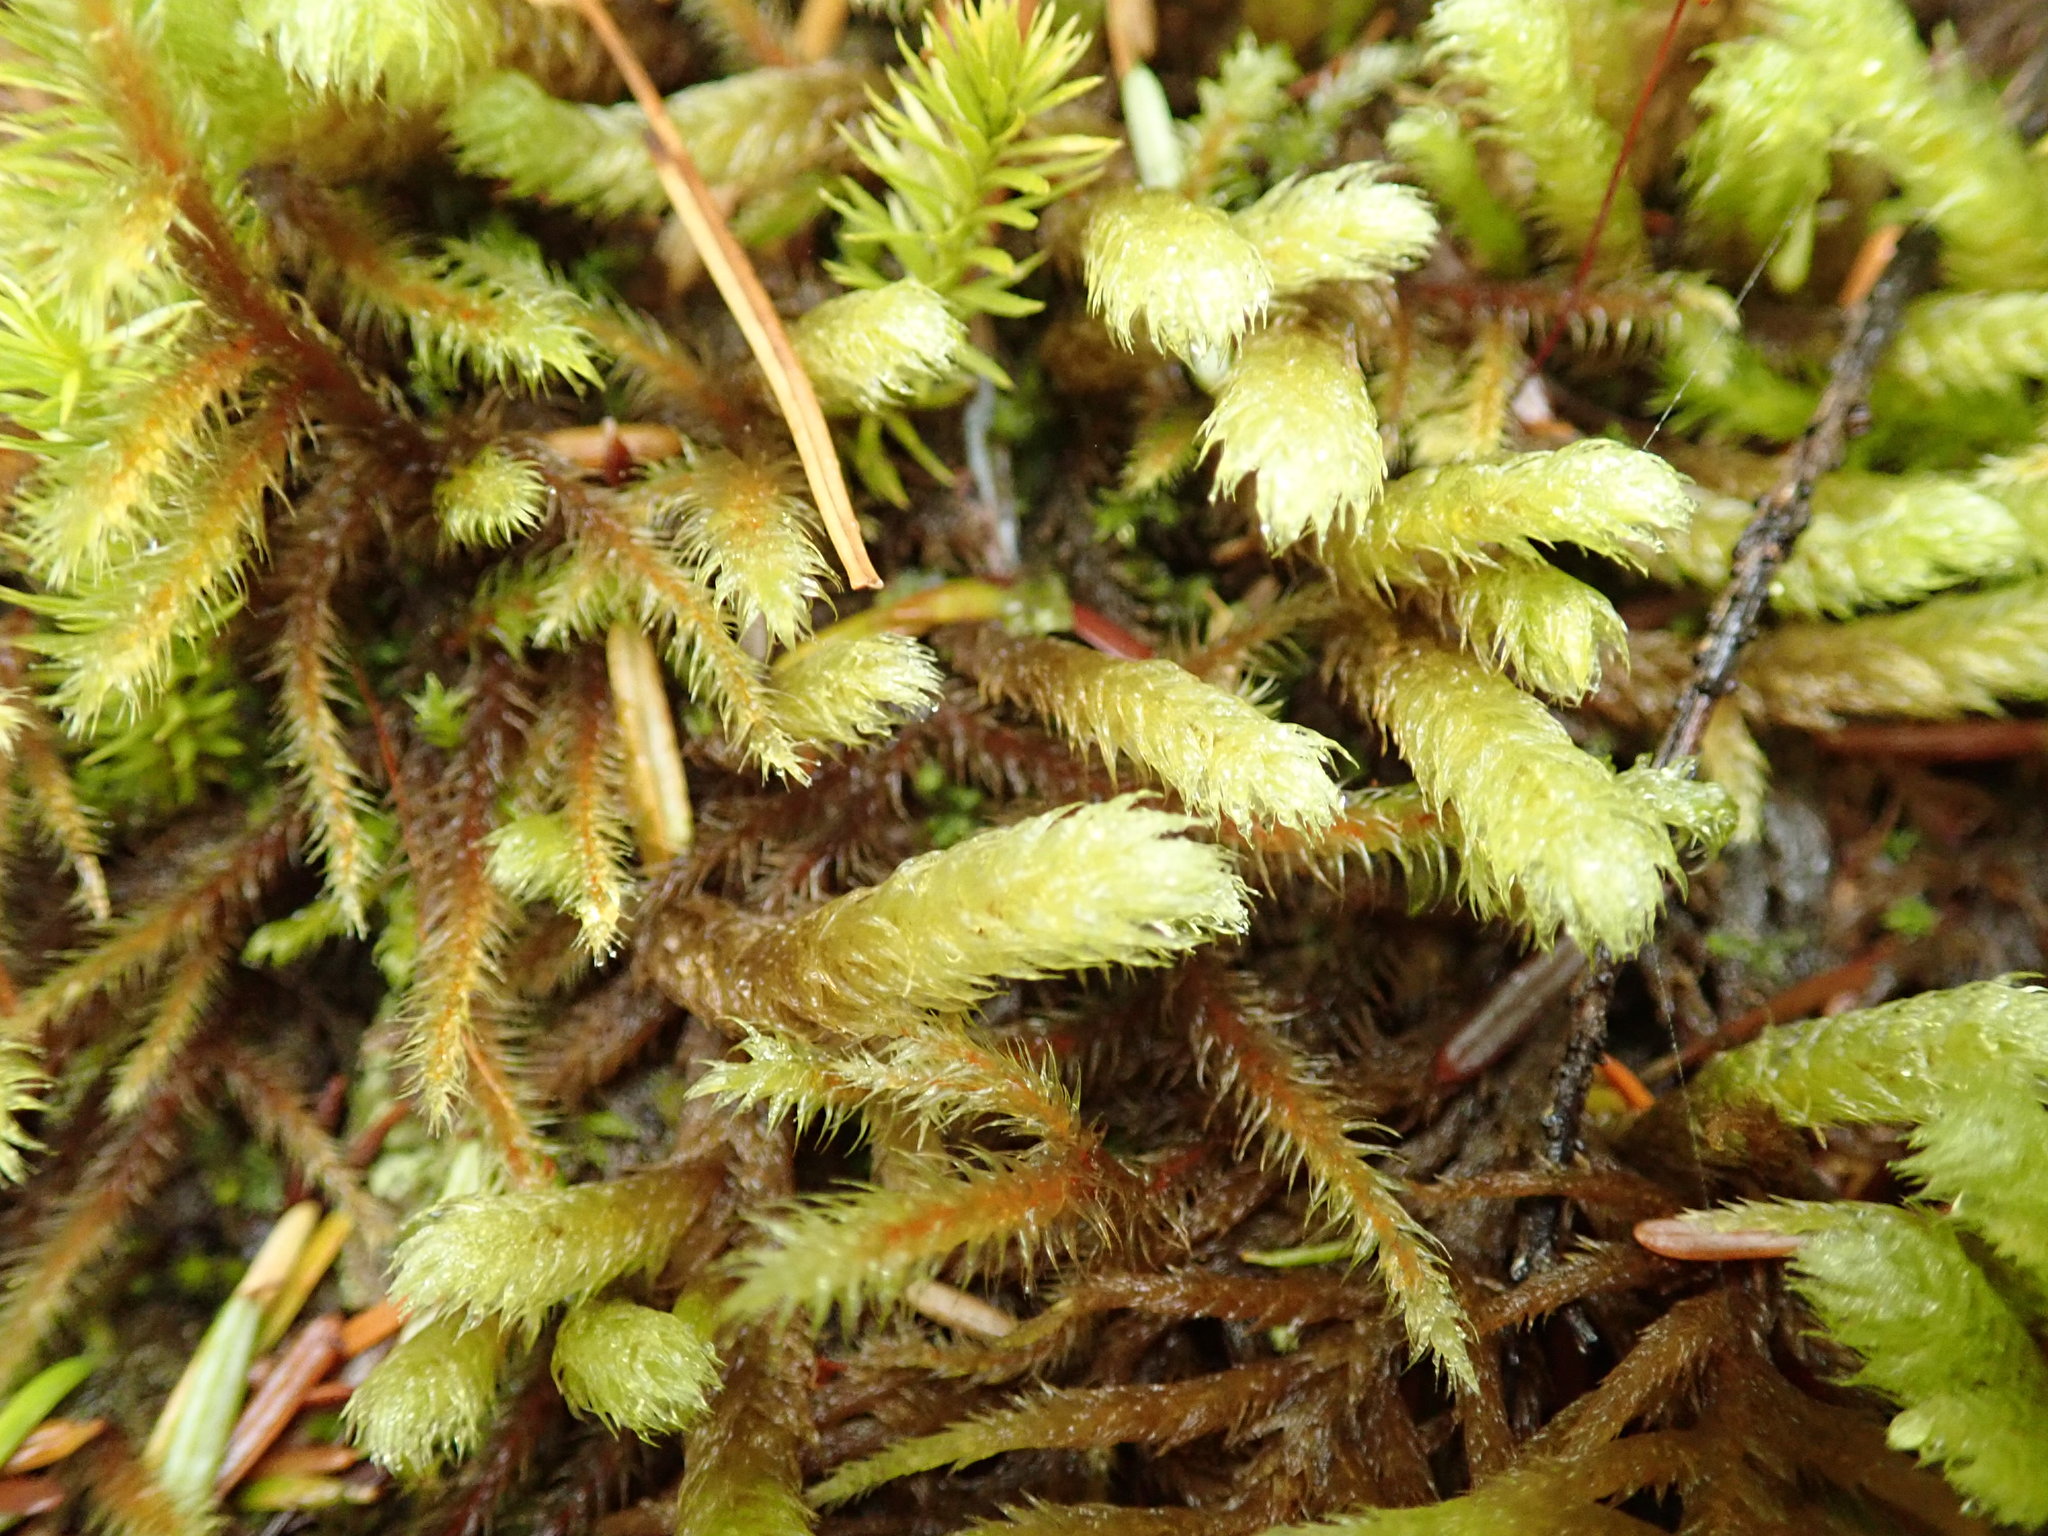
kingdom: Plantae
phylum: Bryophyta
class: Bryopsida
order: Hypnales
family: Hylocomiaceae
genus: Rhytidiopsis
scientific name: Rhytidiopsis robusta
